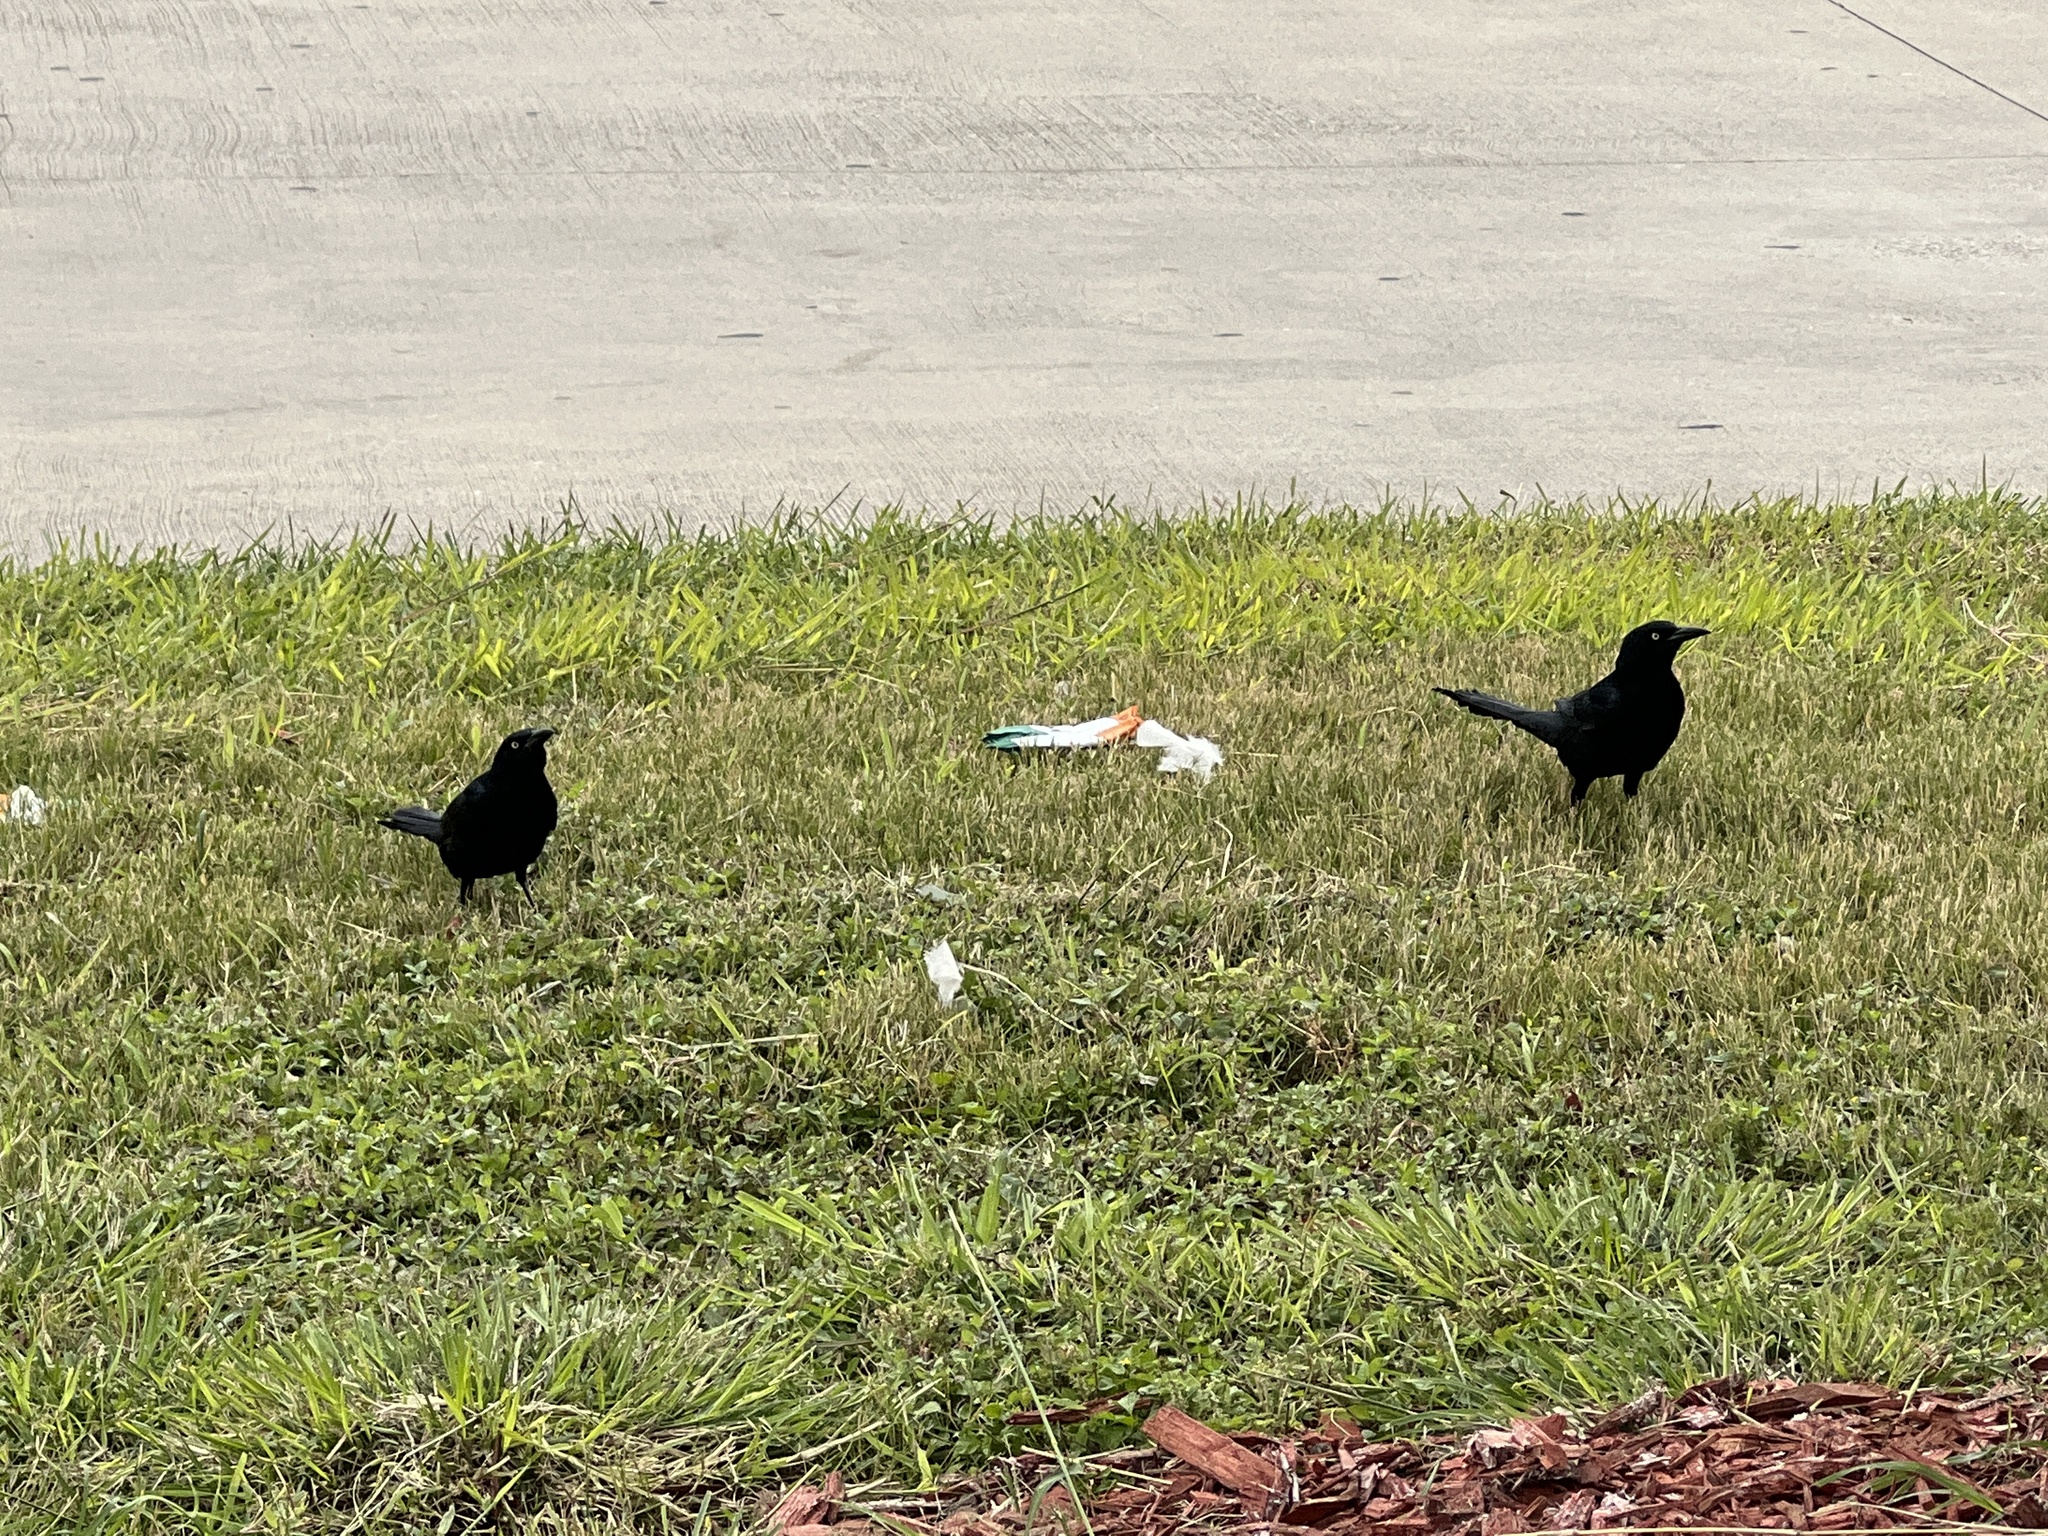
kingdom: Animalia
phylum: Chordata
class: Aves
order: Passeriformes
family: Icteridae
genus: Quiscalus
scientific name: Quiscalus mexicanus
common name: Great-tailed grackle
